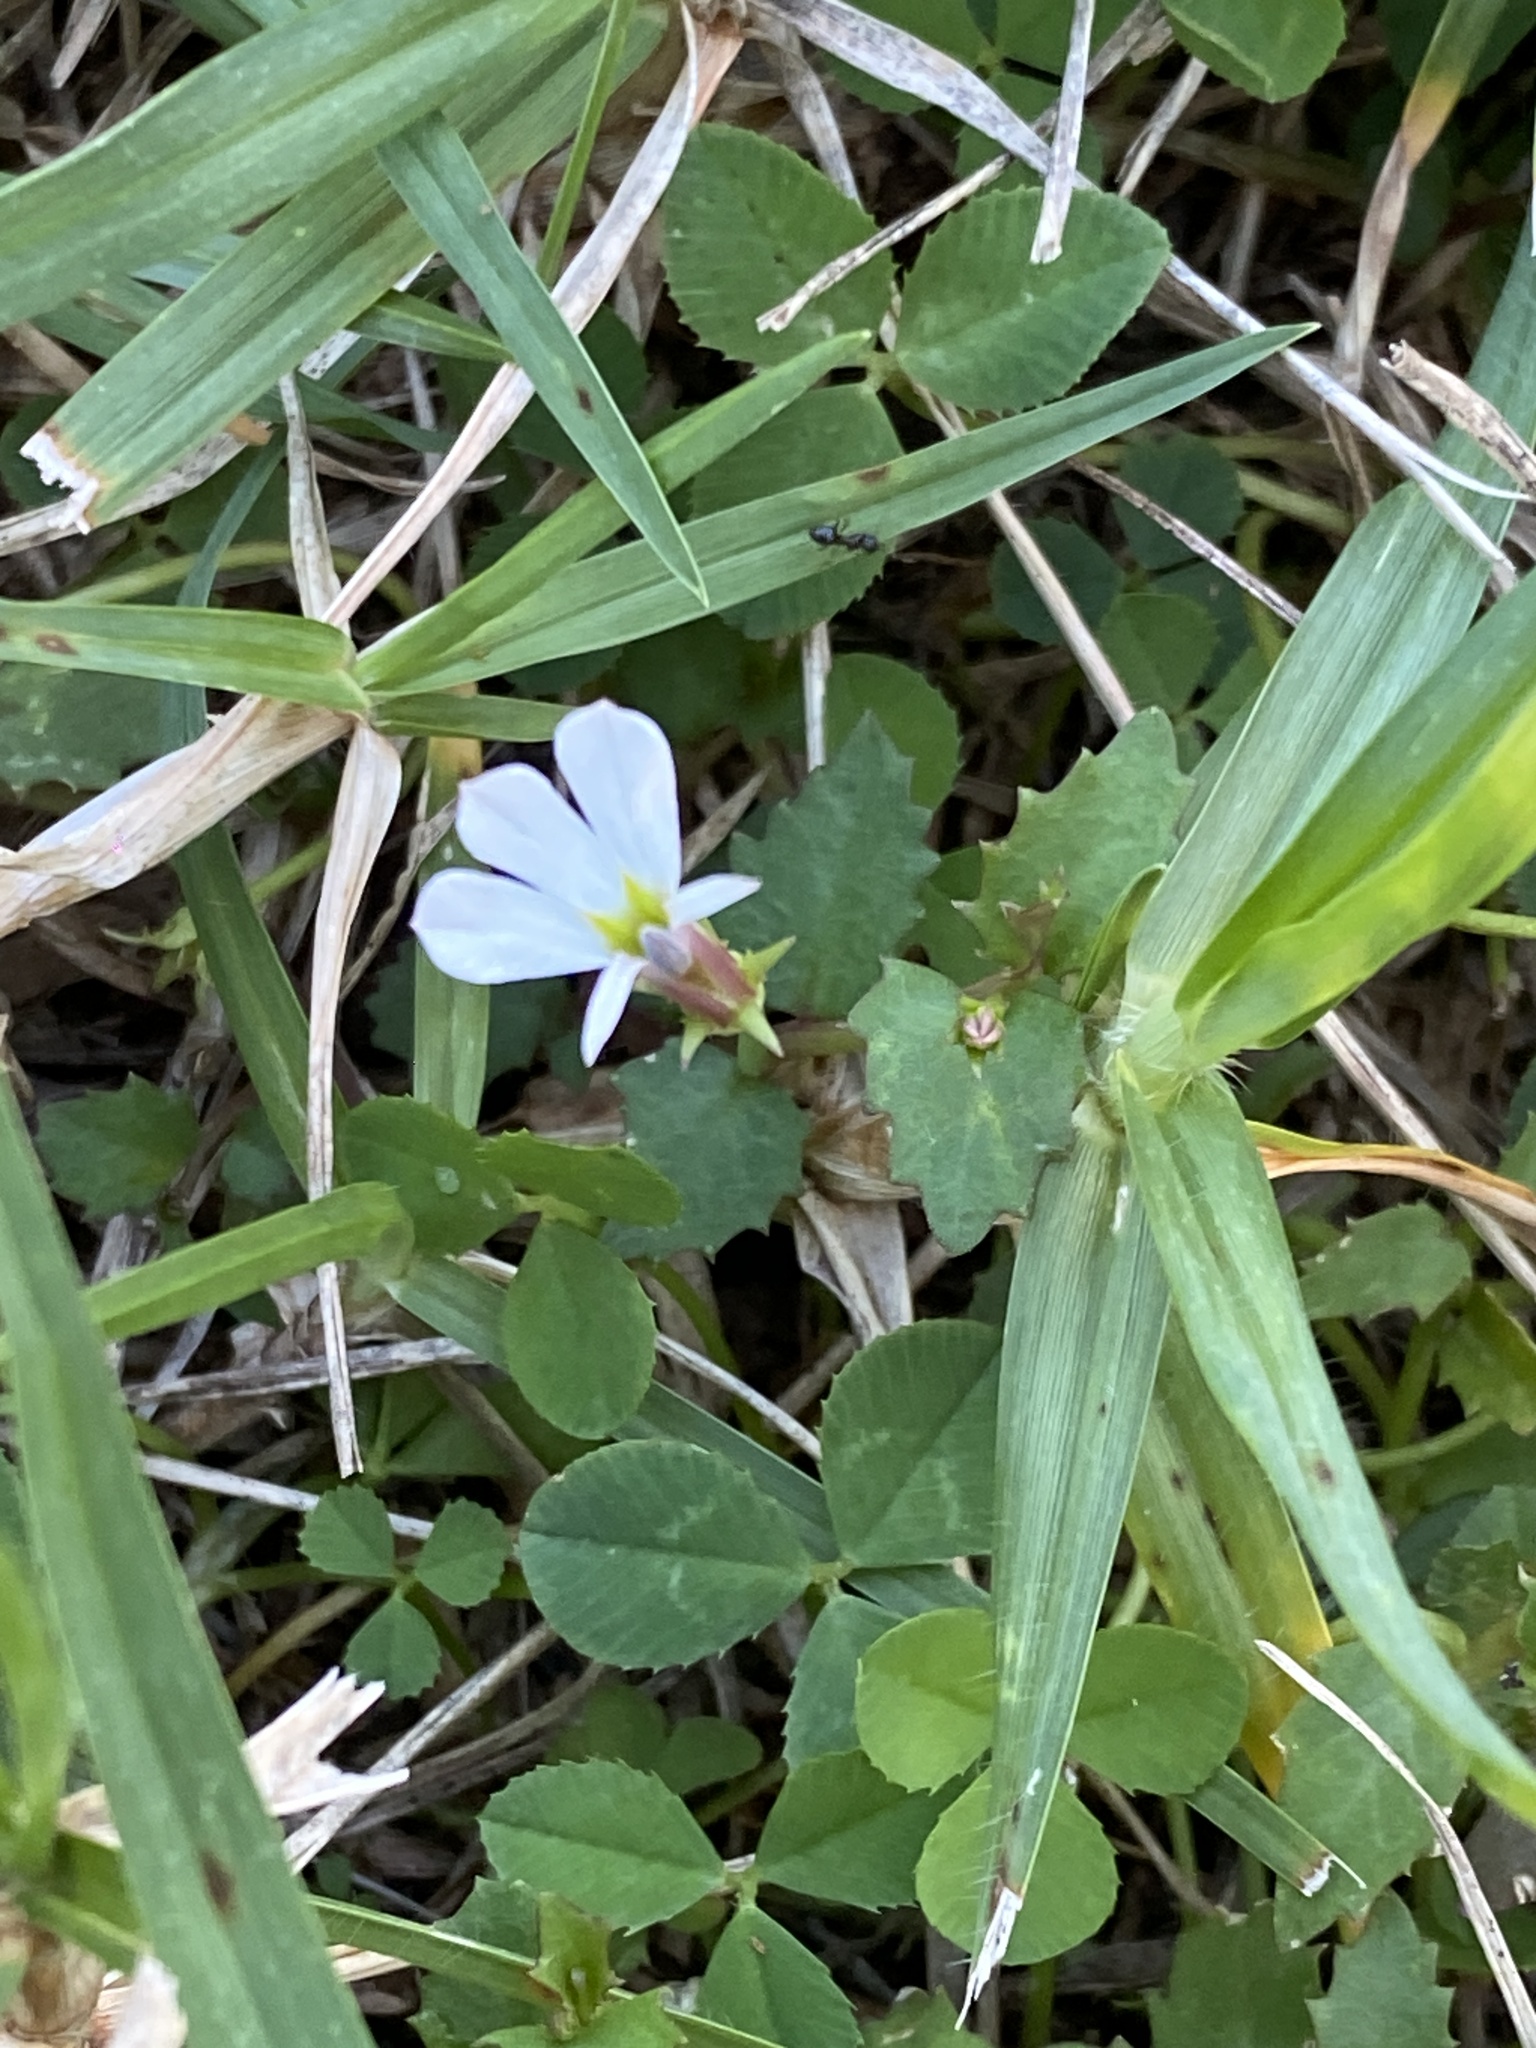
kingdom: Plantae
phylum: Tracheophyta
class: Magnoliopsida
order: Asterales
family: Campanulaceae
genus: Lobelia
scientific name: Lobelia purpurascens
